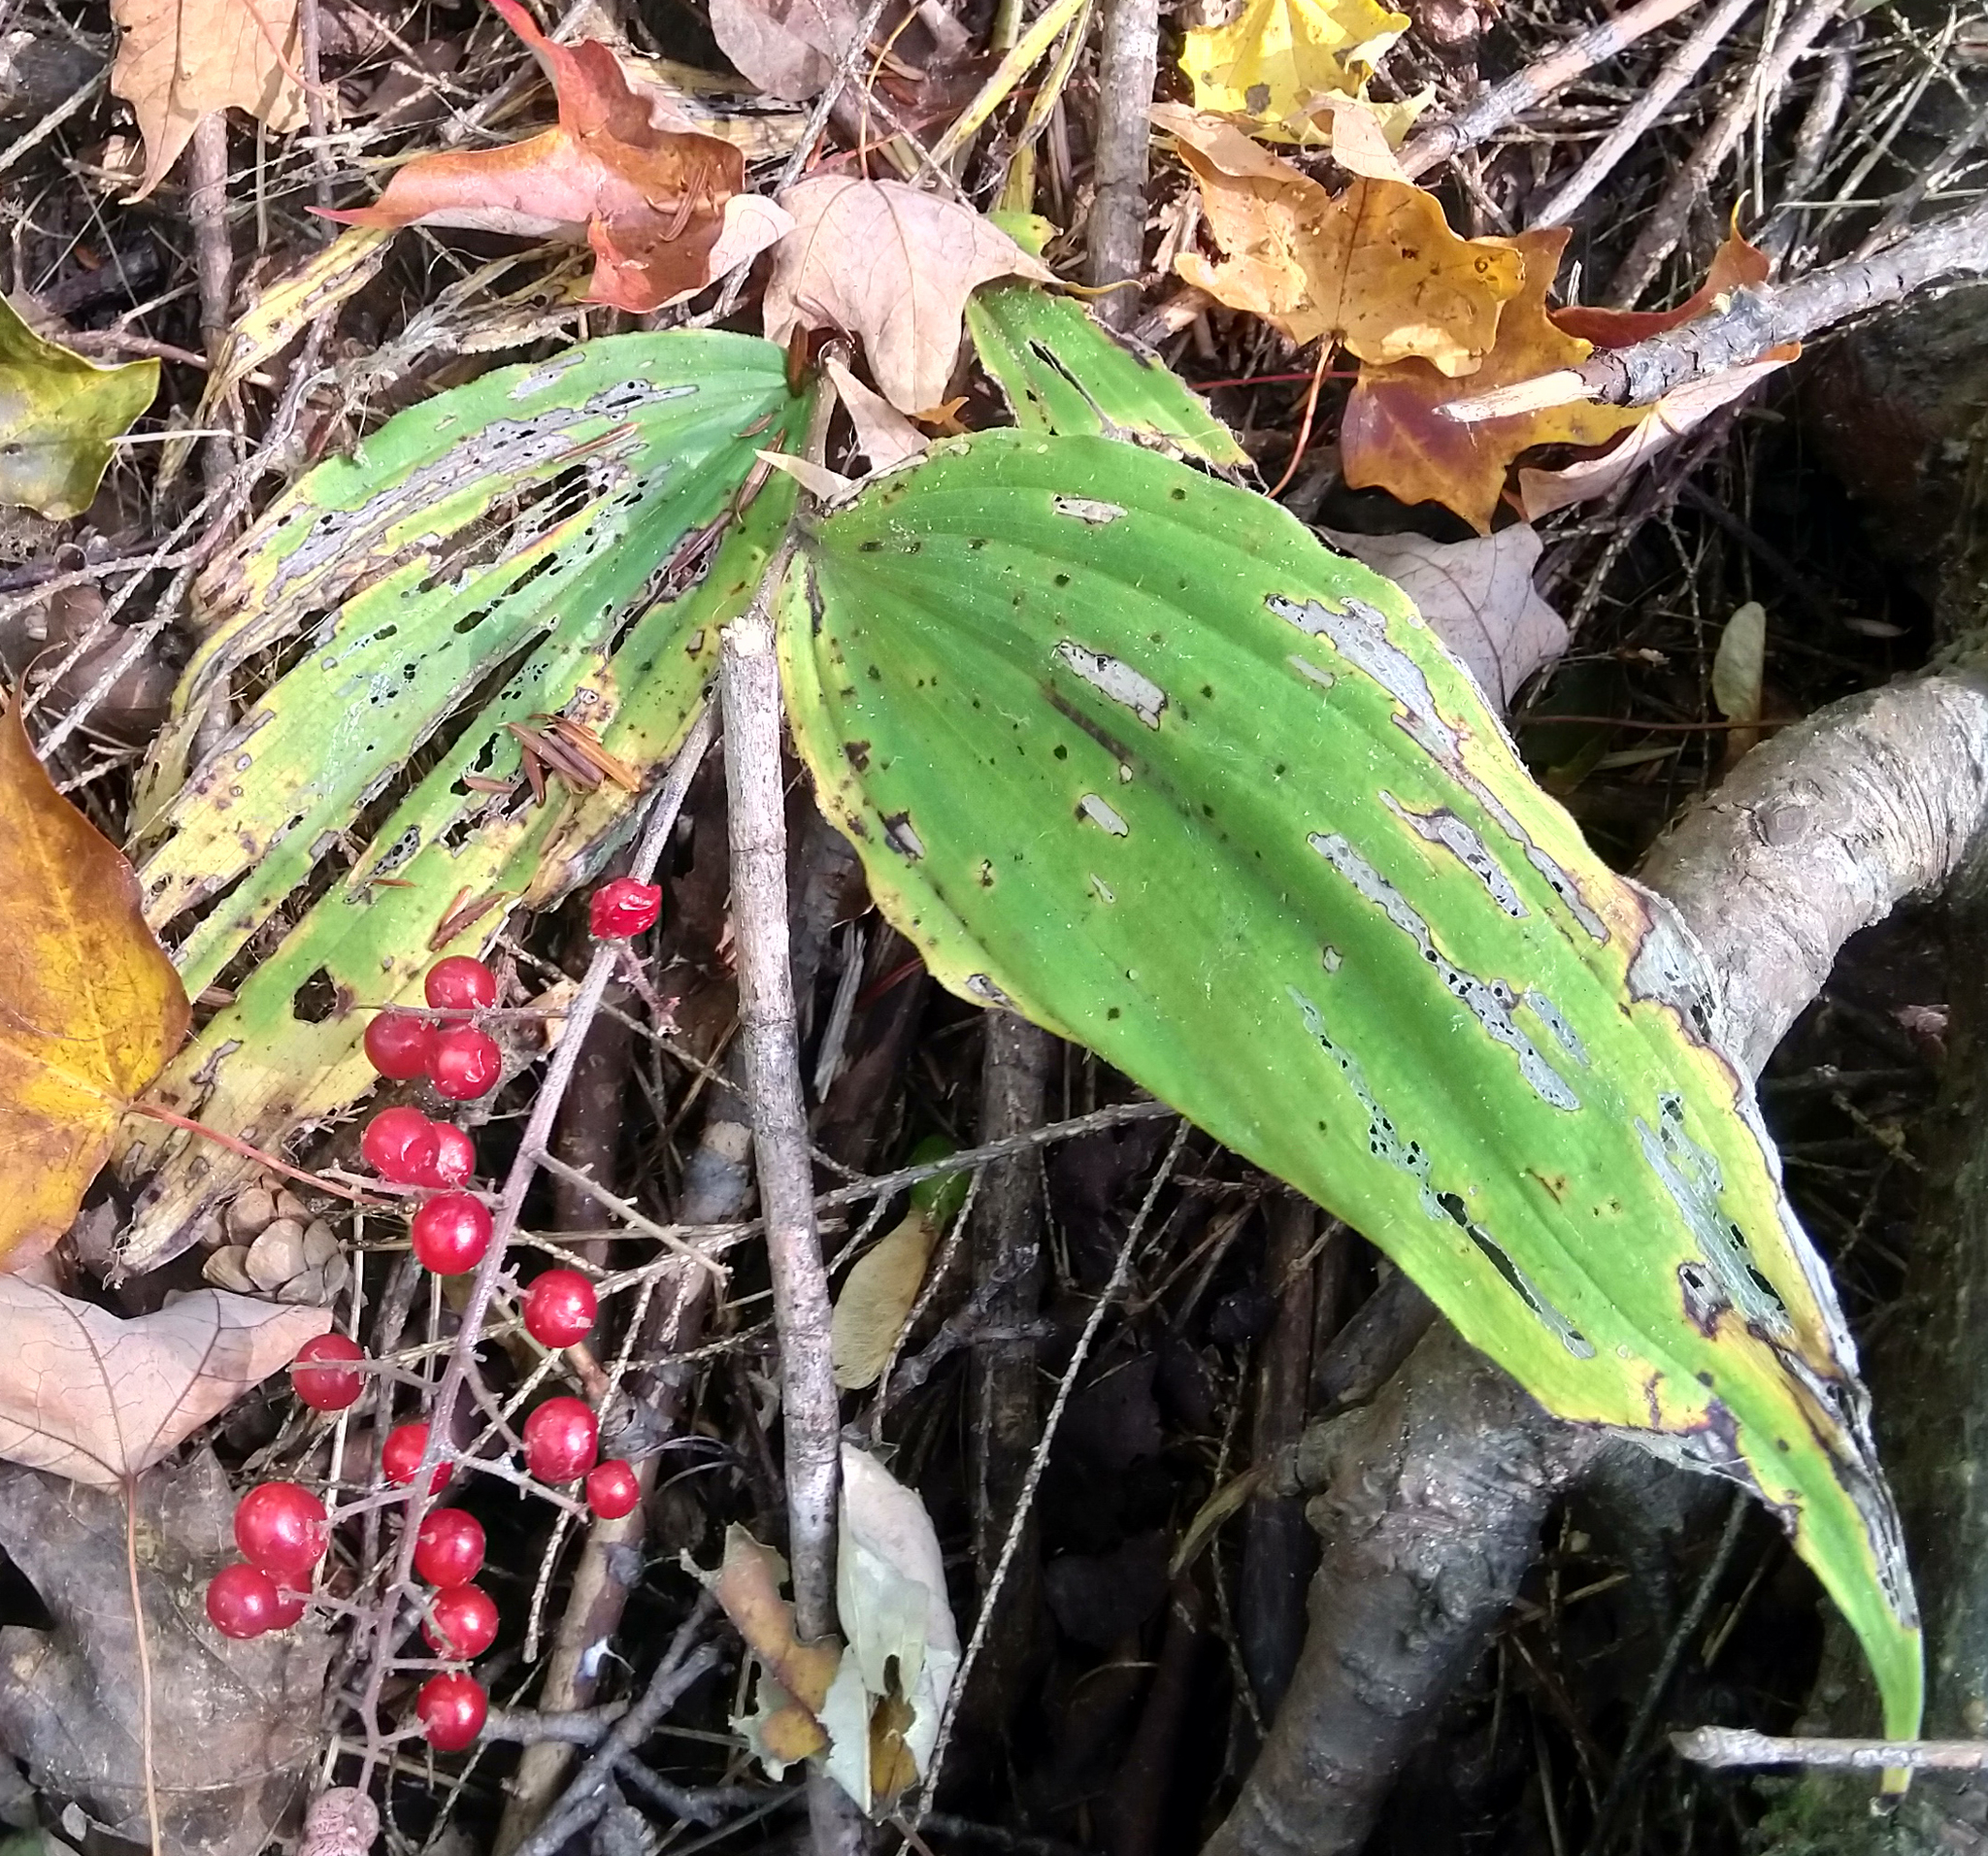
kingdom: Plantae
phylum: Tracheophyta
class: Liliopsida
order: Asparagales
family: Asparagaceae
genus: Maianthemum
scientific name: Maianthemum racemosum
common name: False spikenard
